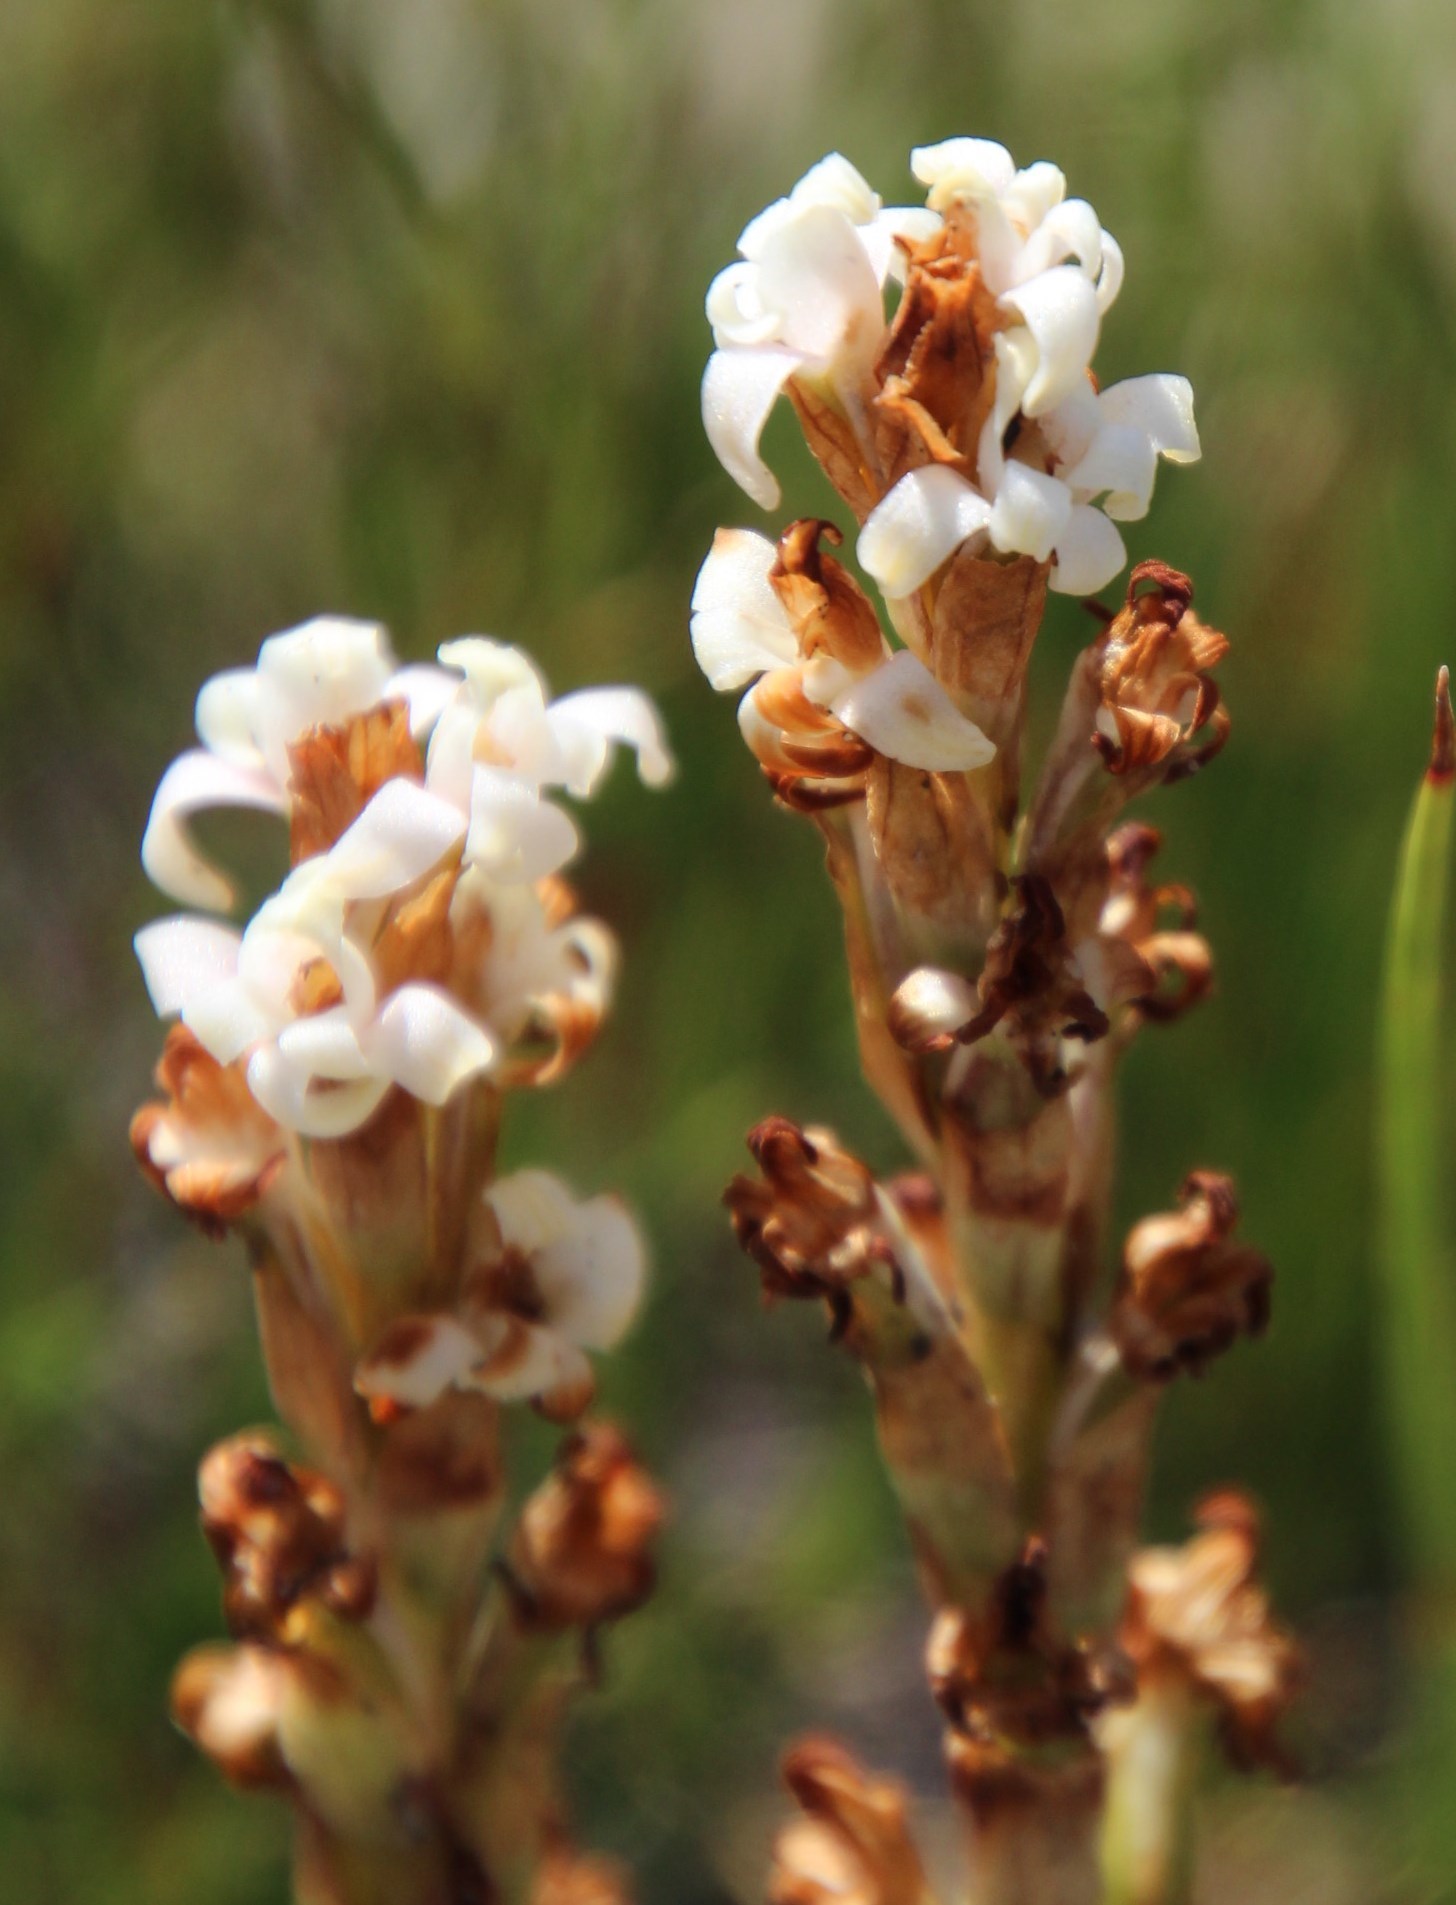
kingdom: Plantae
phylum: Tracheophyta
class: Liliopsida
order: Asparagales
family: Orchidaceae
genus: Satyrium
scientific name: Satyrium stenopetalum
